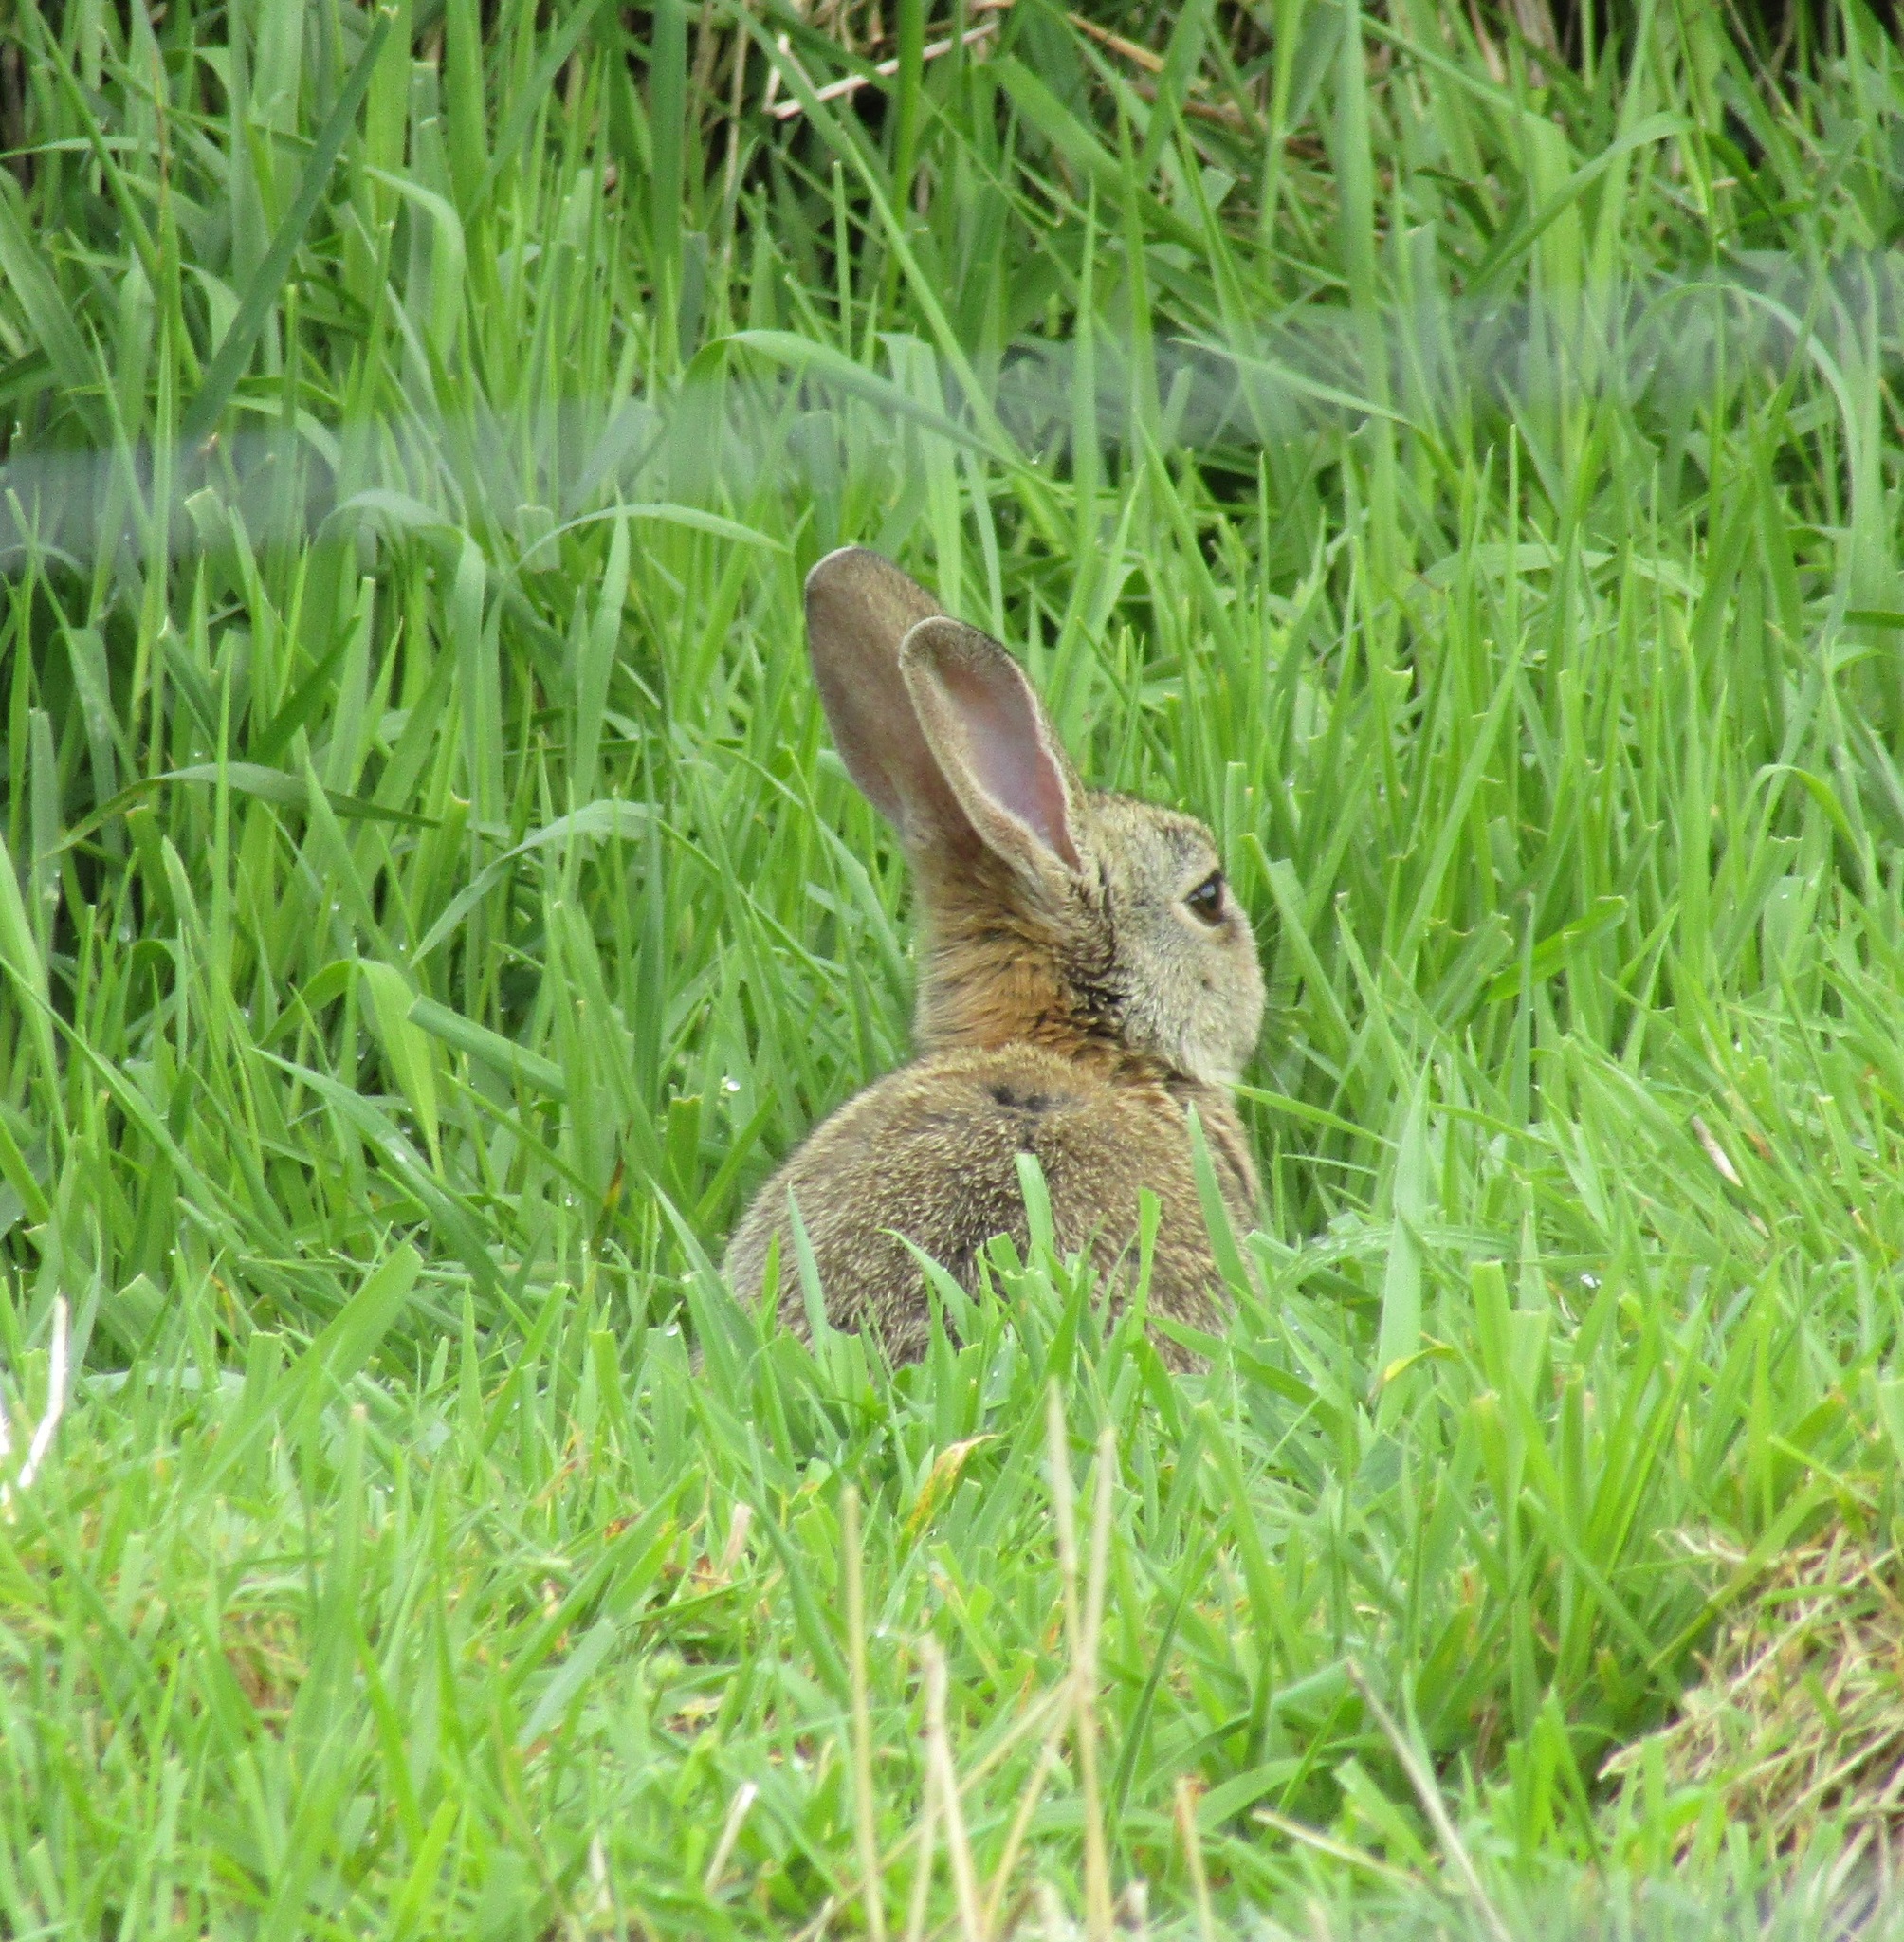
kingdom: Animalia
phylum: Chordata
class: Mammalia
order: Lagomorpha
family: Leporidae
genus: Oryctolagus
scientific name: Oryctolagus cuniculus
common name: European rabbit
